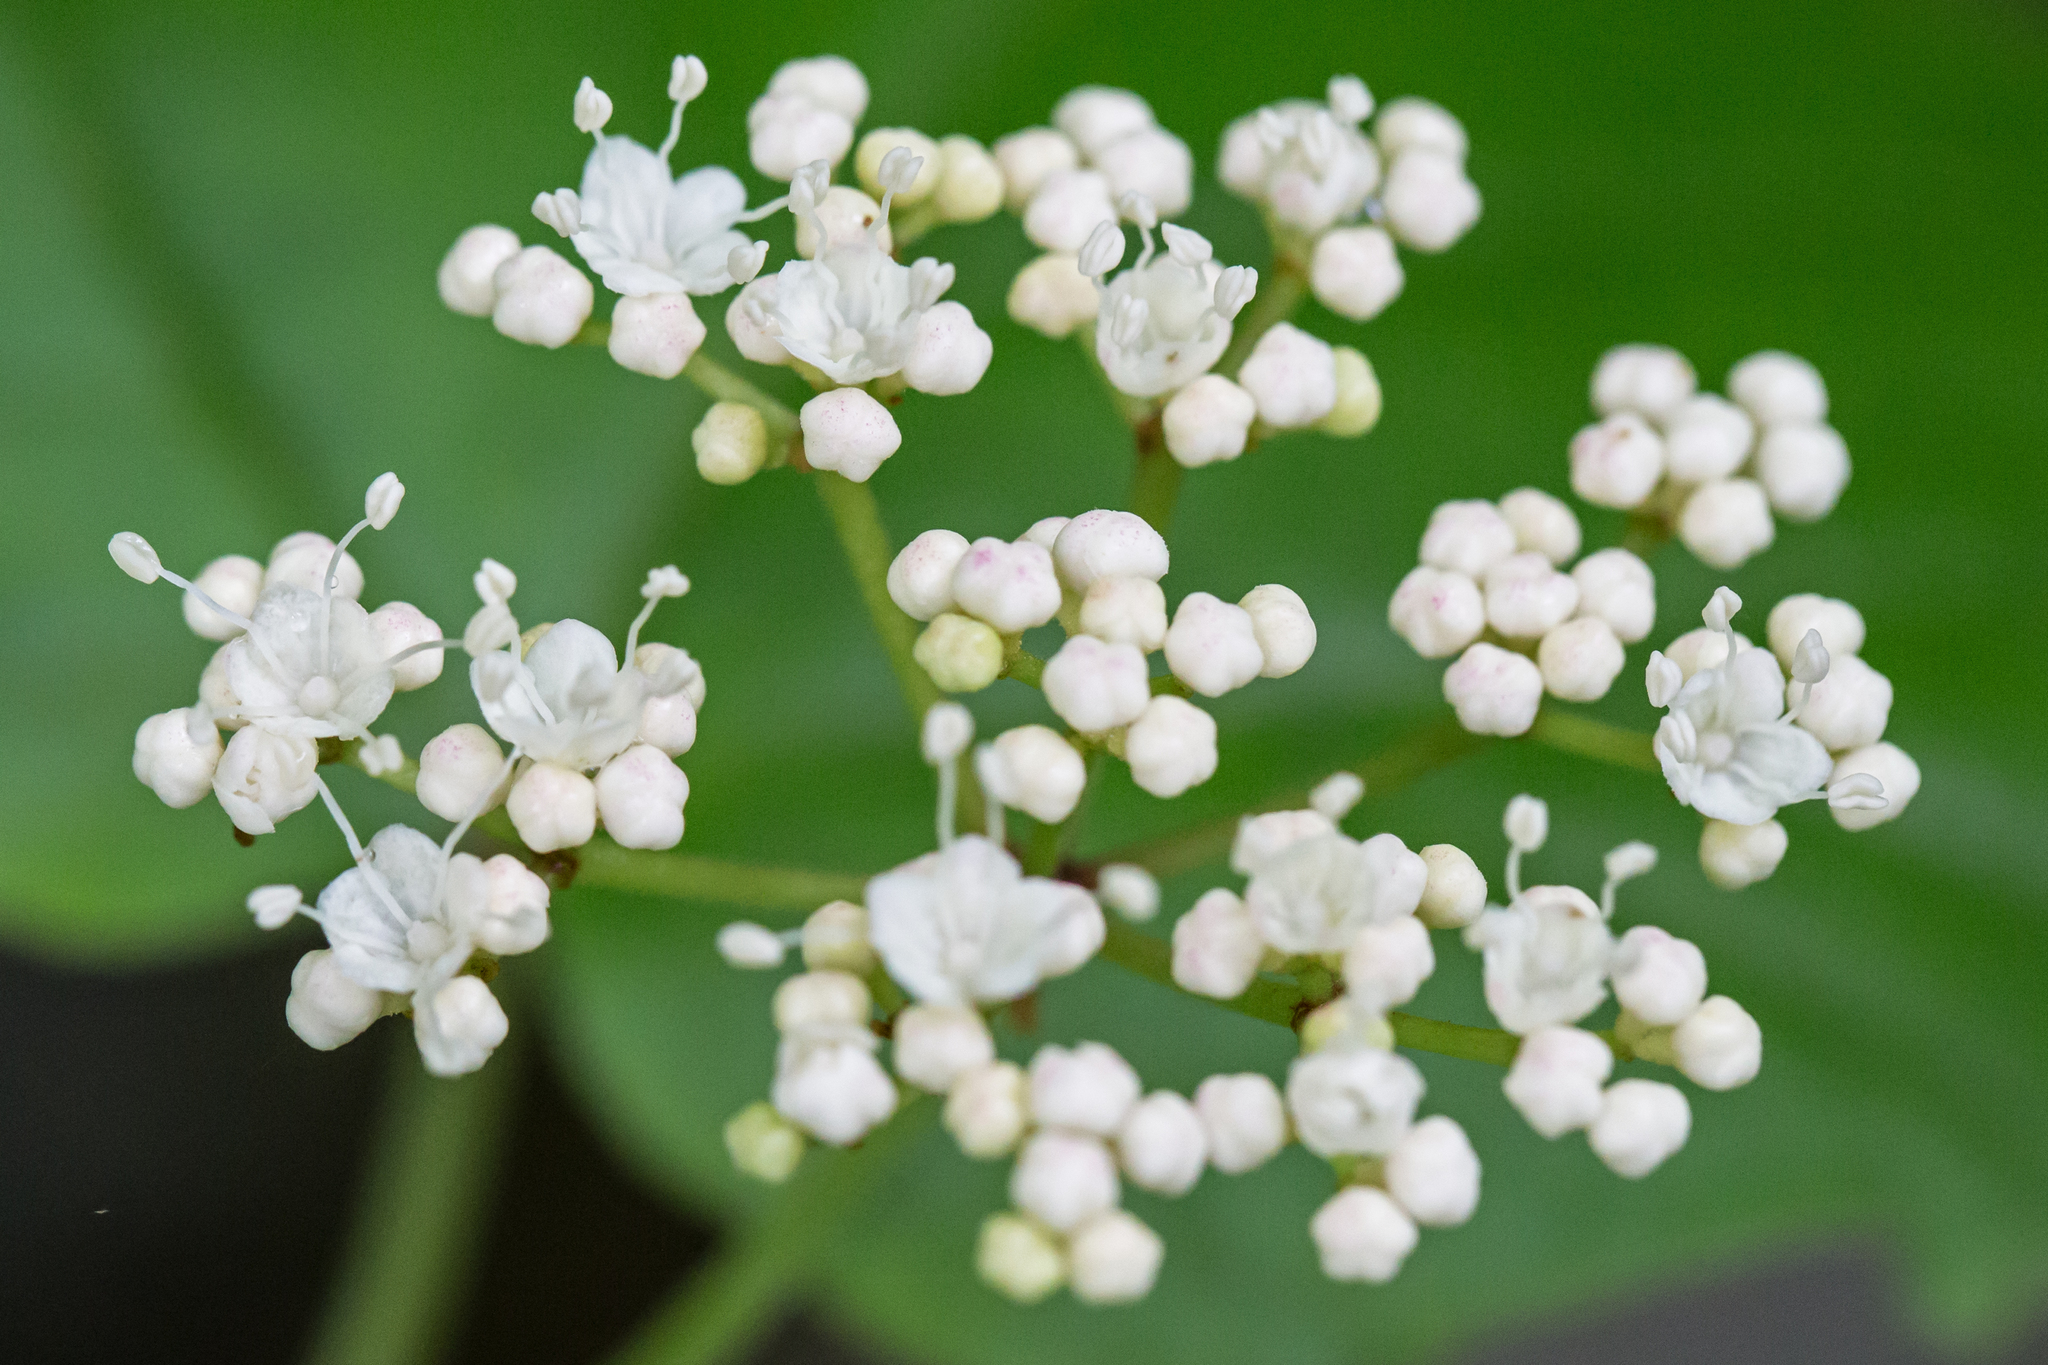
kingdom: Plantae
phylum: Tracheophyta
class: Magnoliopsida
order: Dipsacales
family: Viburnaceae
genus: Viburnum
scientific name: Viburnum acerifolium
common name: Dockmackie
